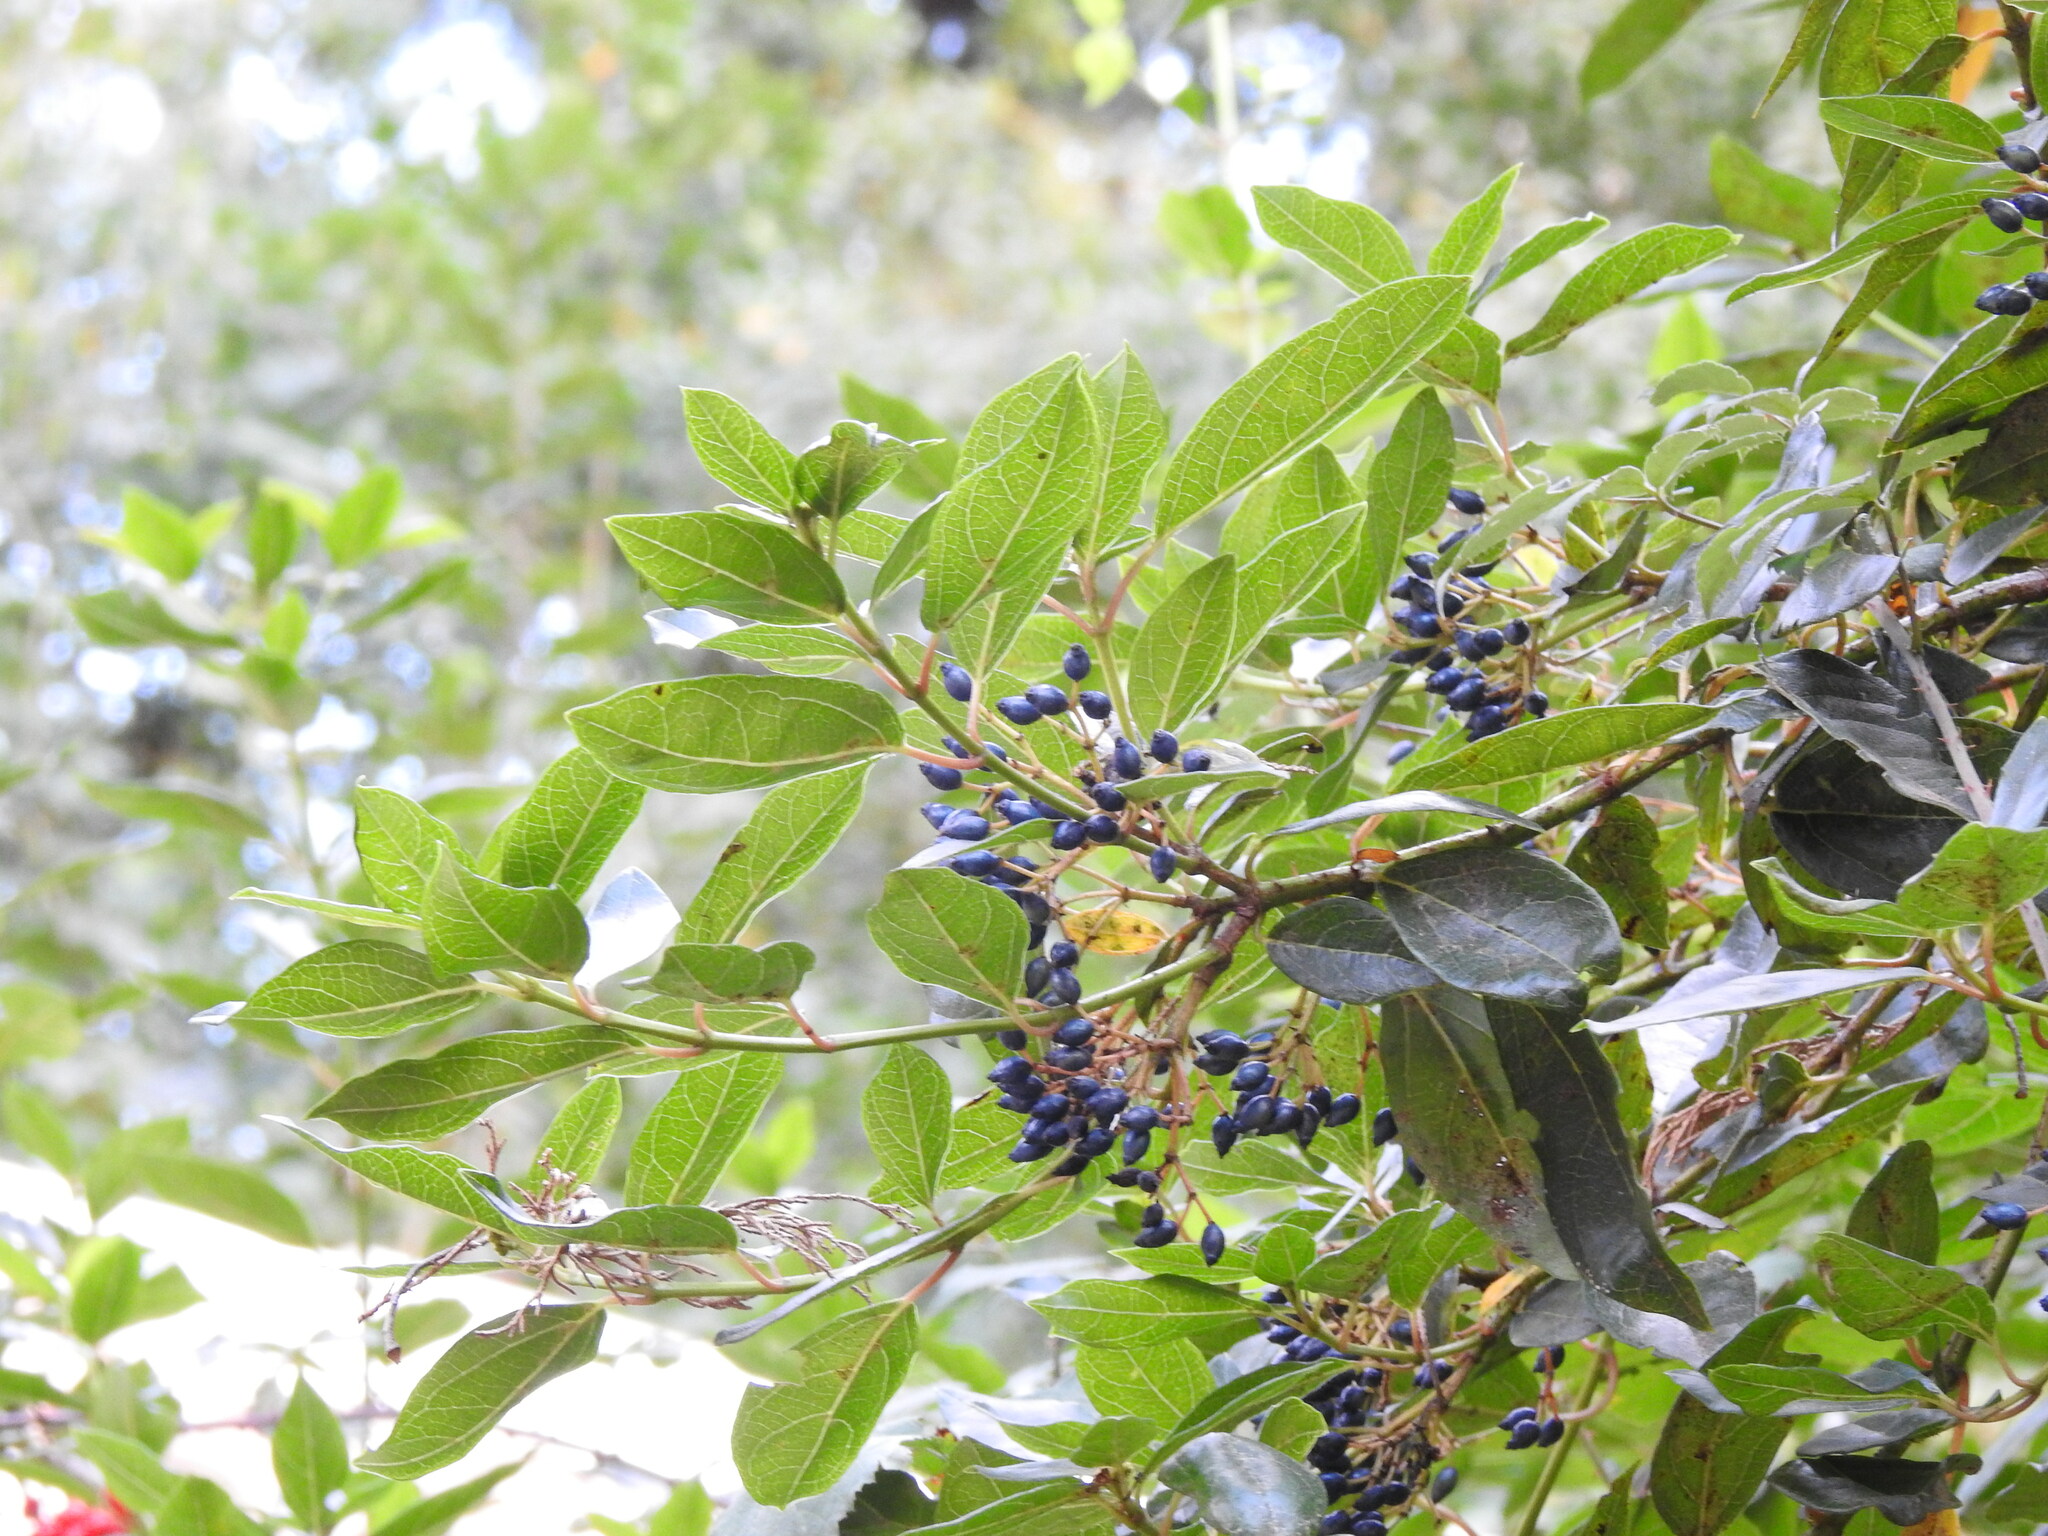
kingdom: Plantae
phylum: Tracheophyta
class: Magnoliopsida
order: Dipsacales
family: Viburnaceae
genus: Viburnum
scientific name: Viburnum tinus
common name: Laurustinus
